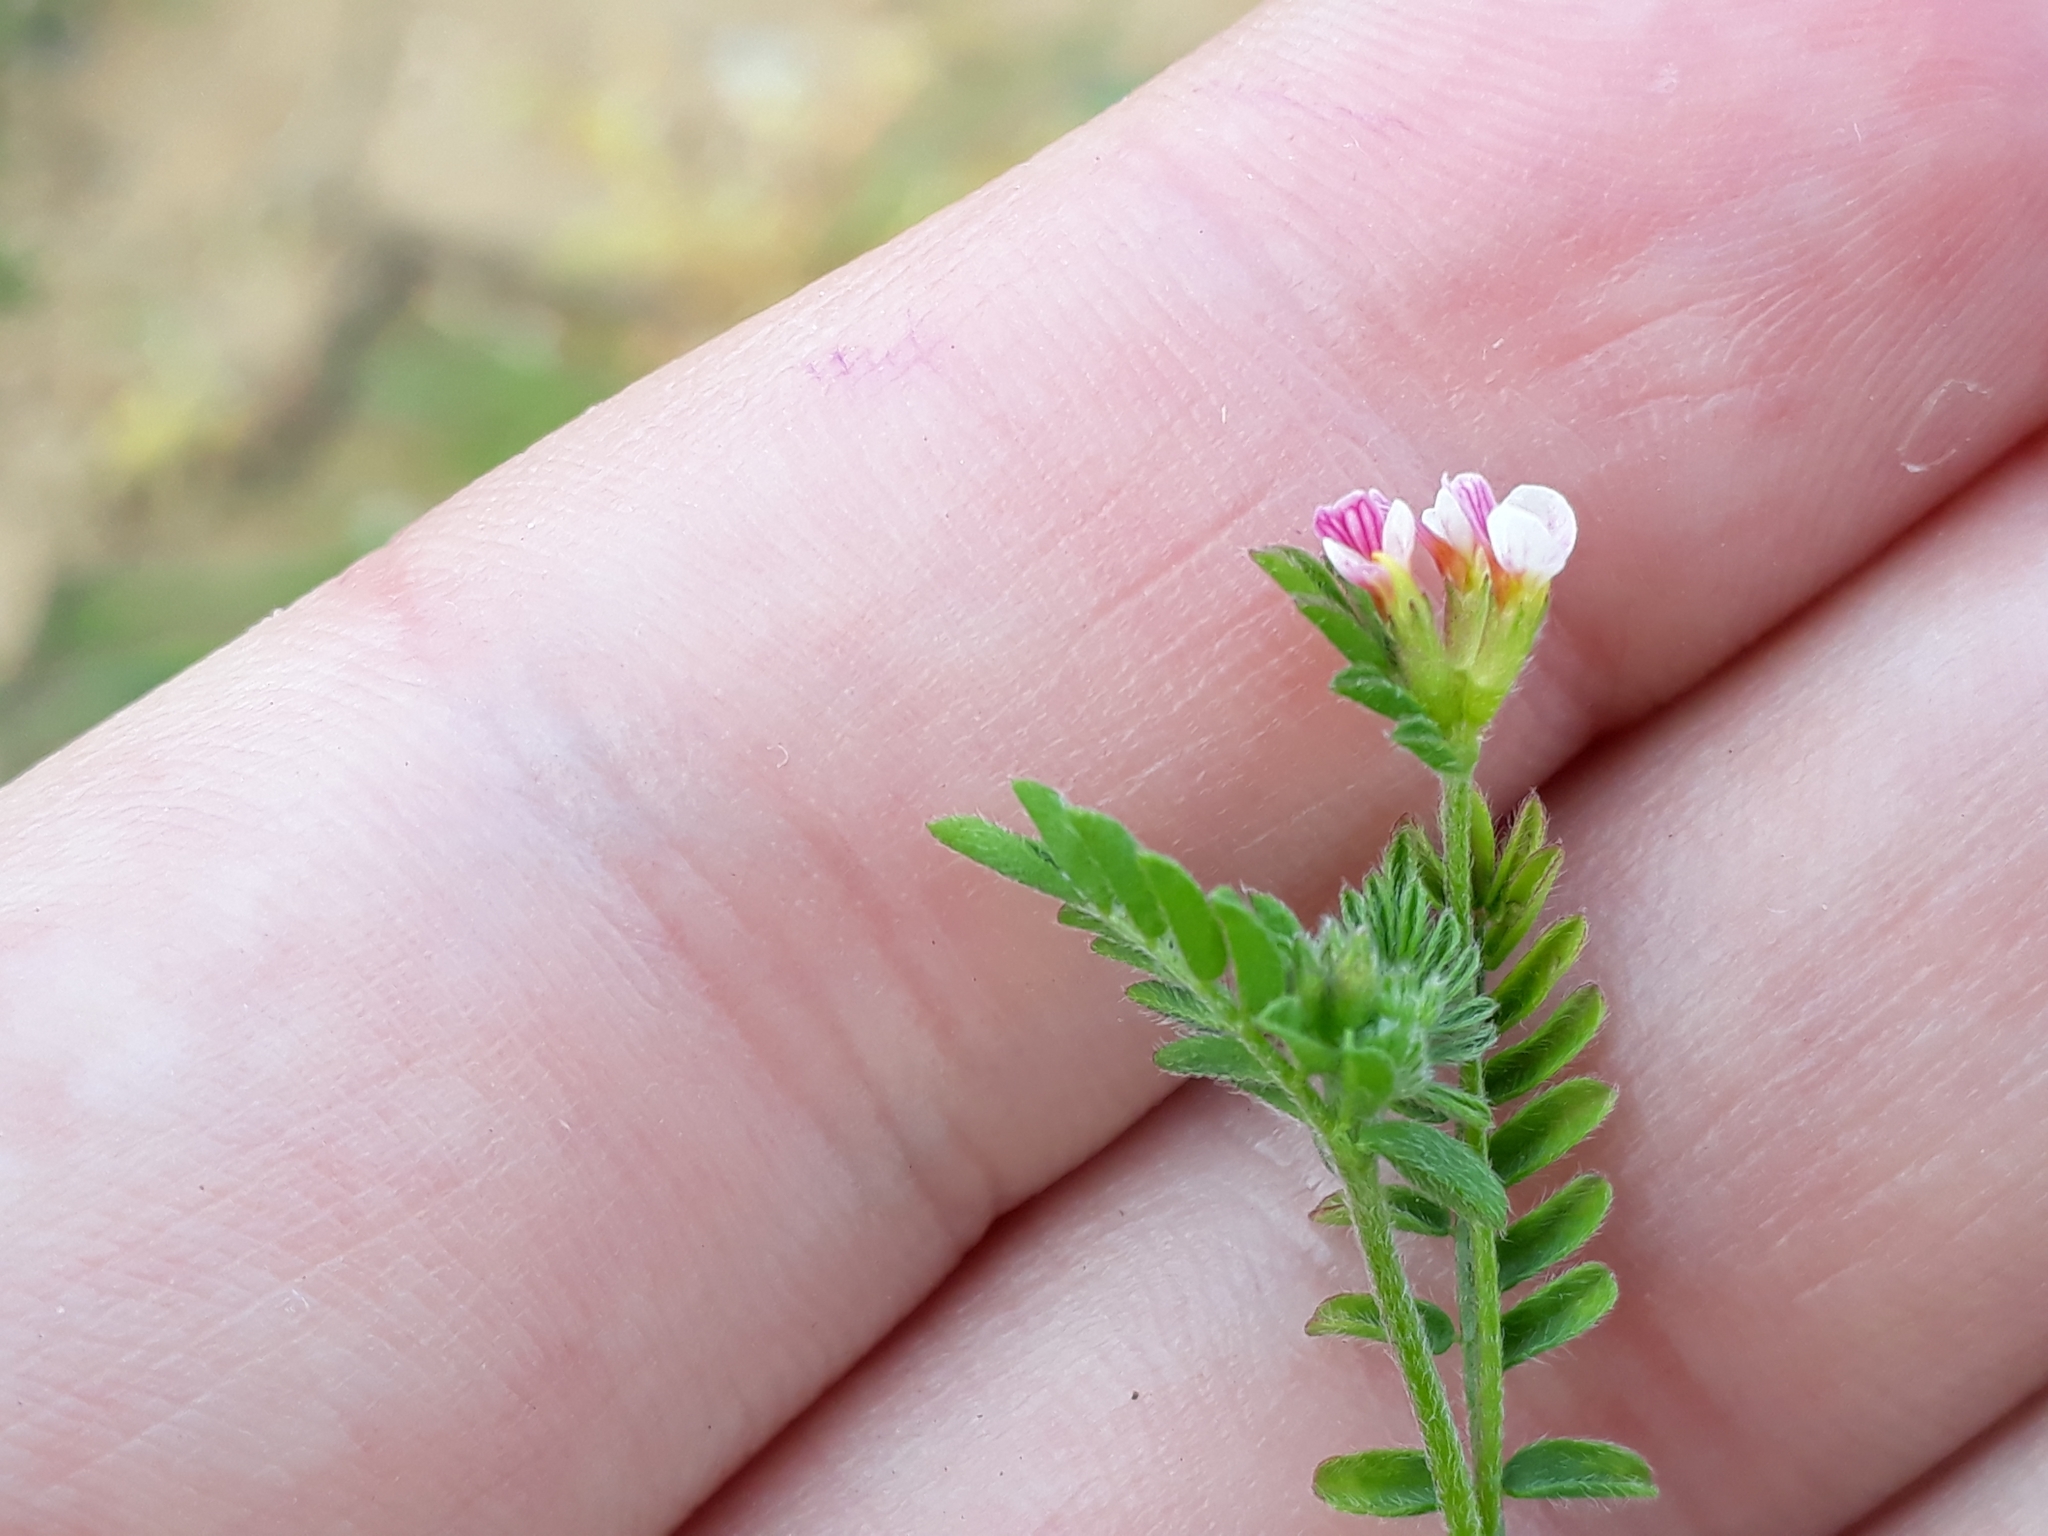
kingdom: Plantae
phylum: Tracheophyta
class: Magnoliopsida
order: Fabales
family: Fabaceae
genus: Ornithopus
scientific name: Ornithopus perpusillus
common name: Bird's-foot
